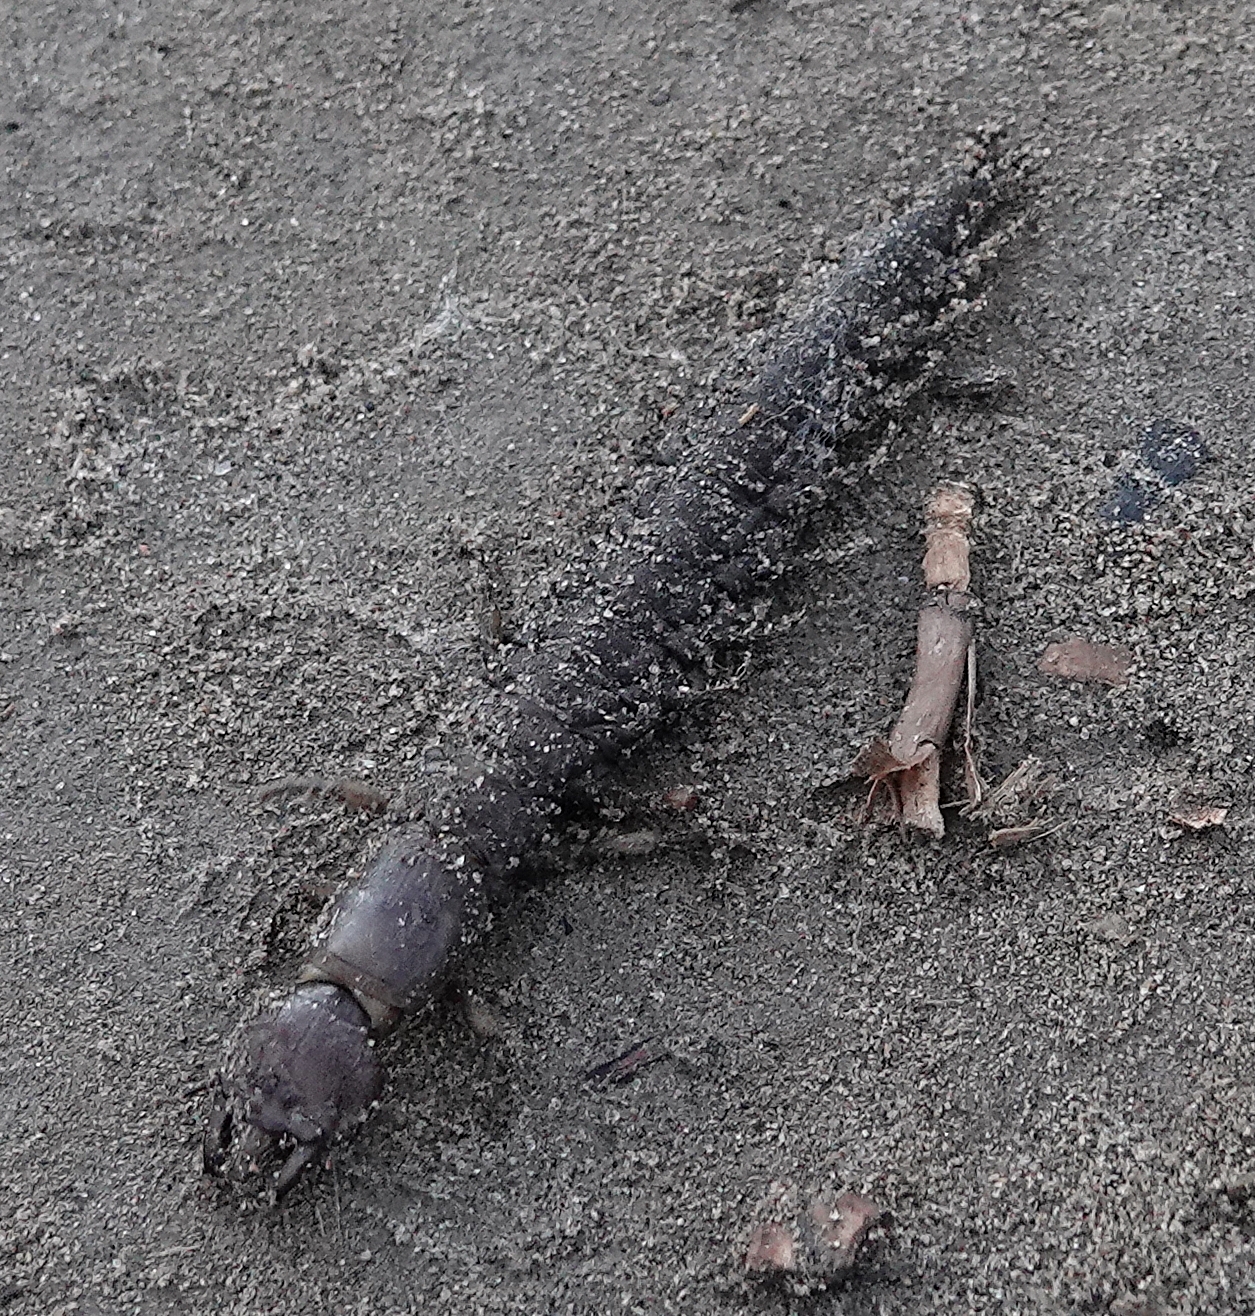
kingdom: Animalia
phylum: Arthropoda
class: Insecta
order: Megaloptera
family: Corydalidae
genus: Corydalus
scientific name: Corydalus texanus
